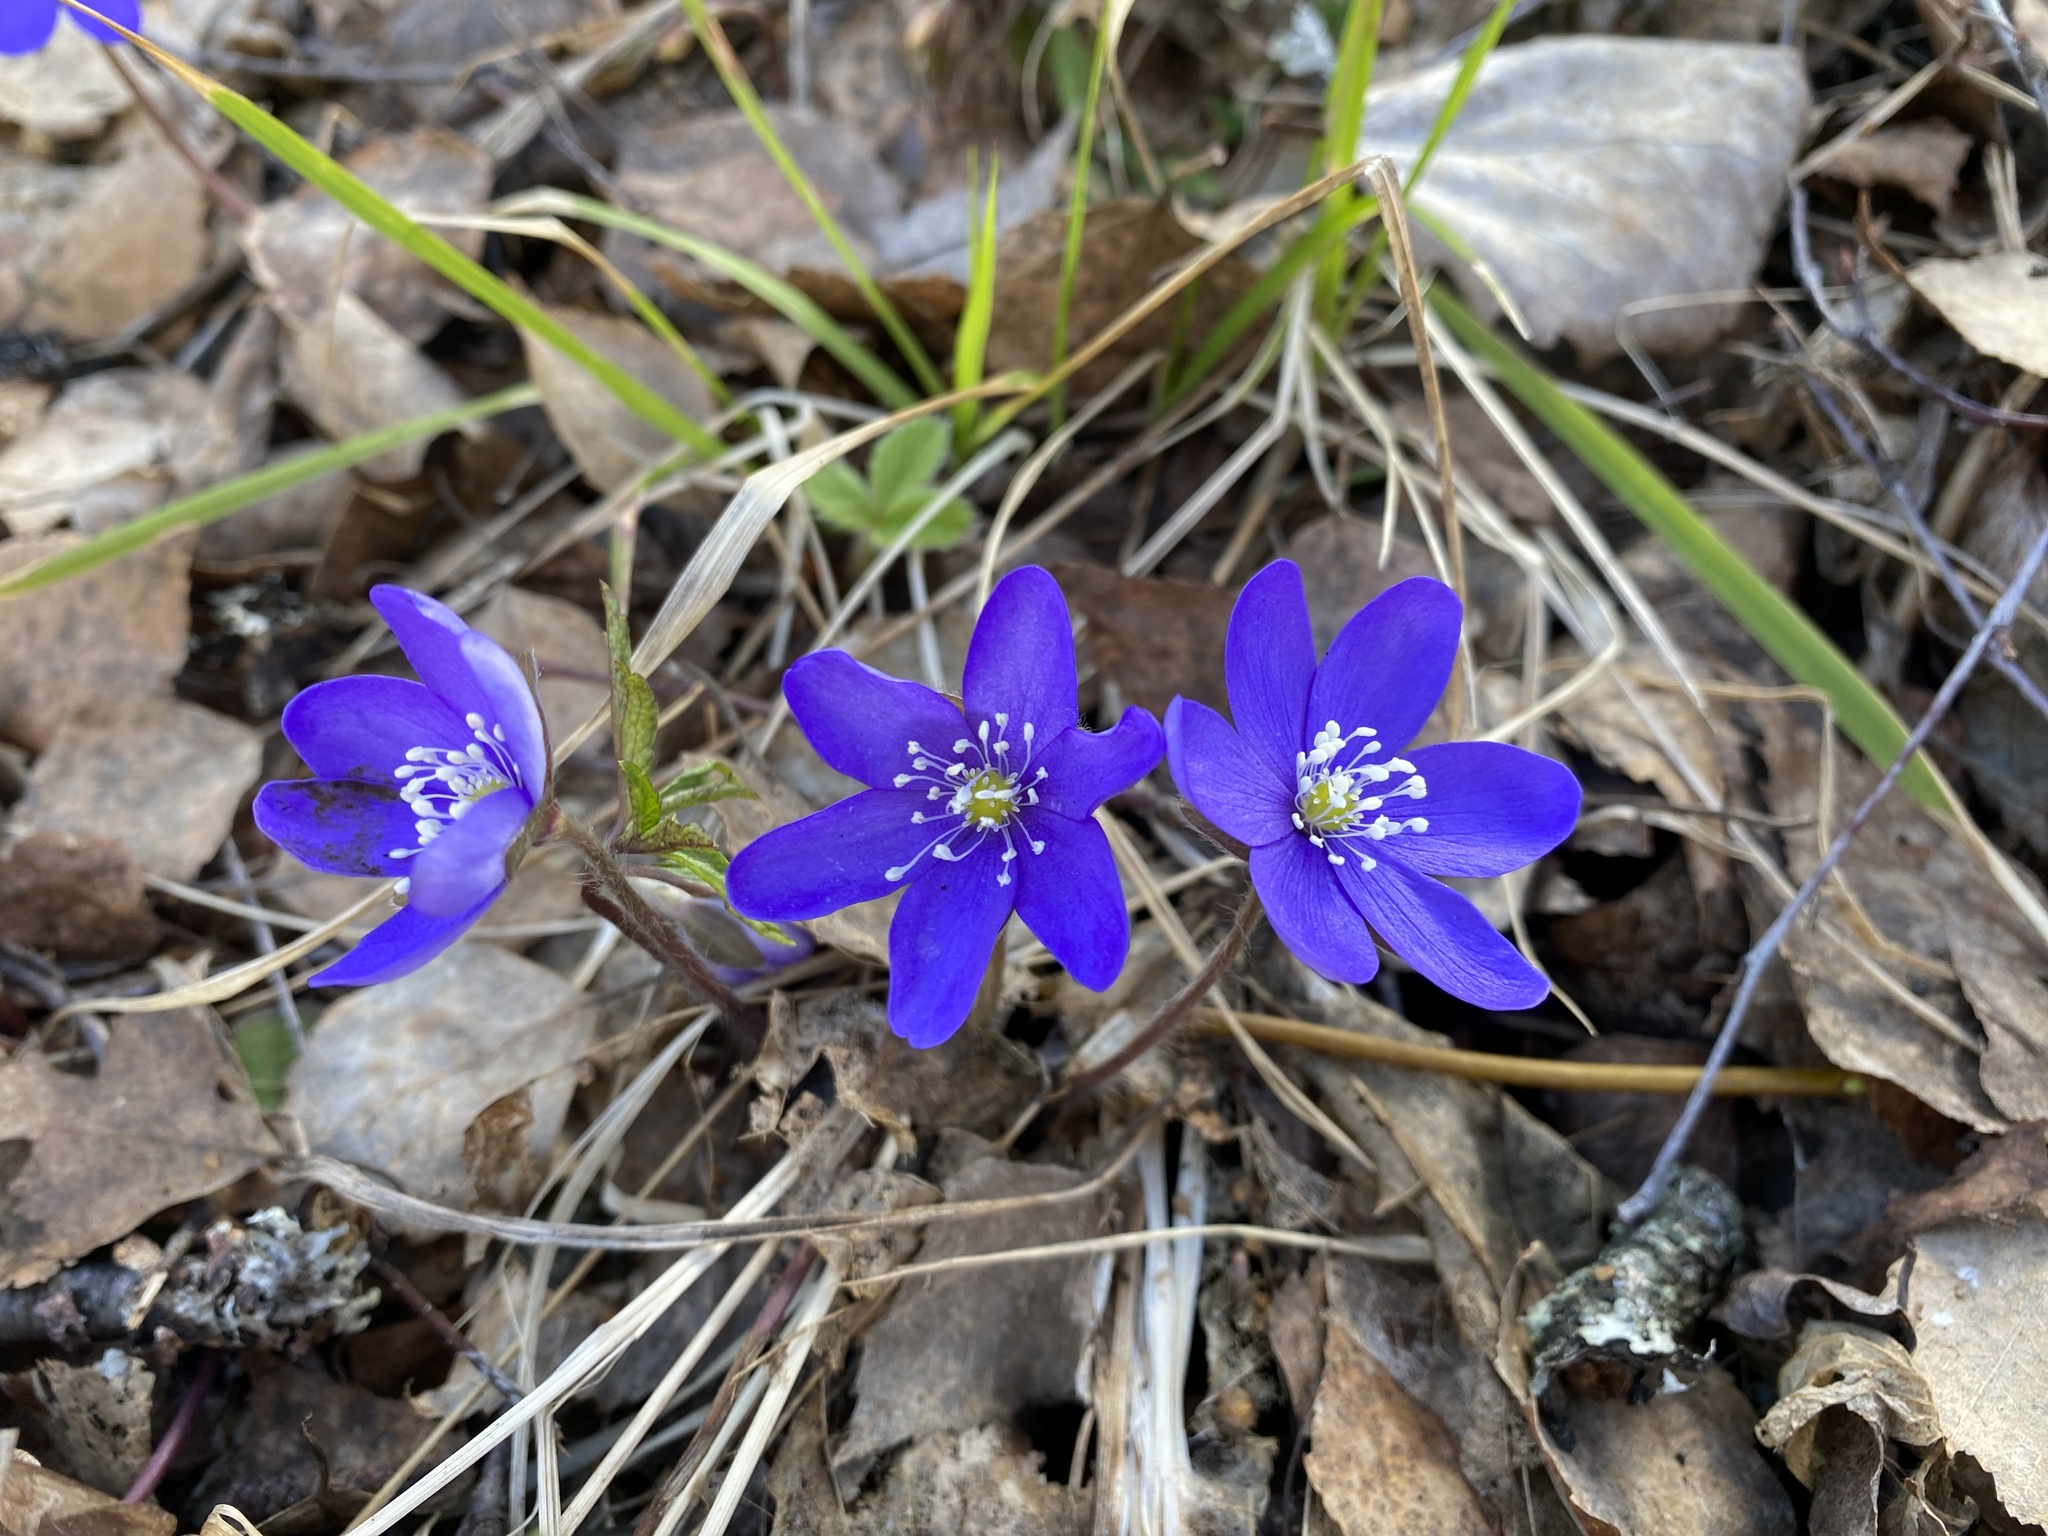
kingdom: Plantae
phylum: Tracheophyta
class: Magnoliopsida
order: Ranunculales
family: Ranunculaceae
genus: Hepatica
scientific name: Hepatica nobilis
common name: Liverleaf
